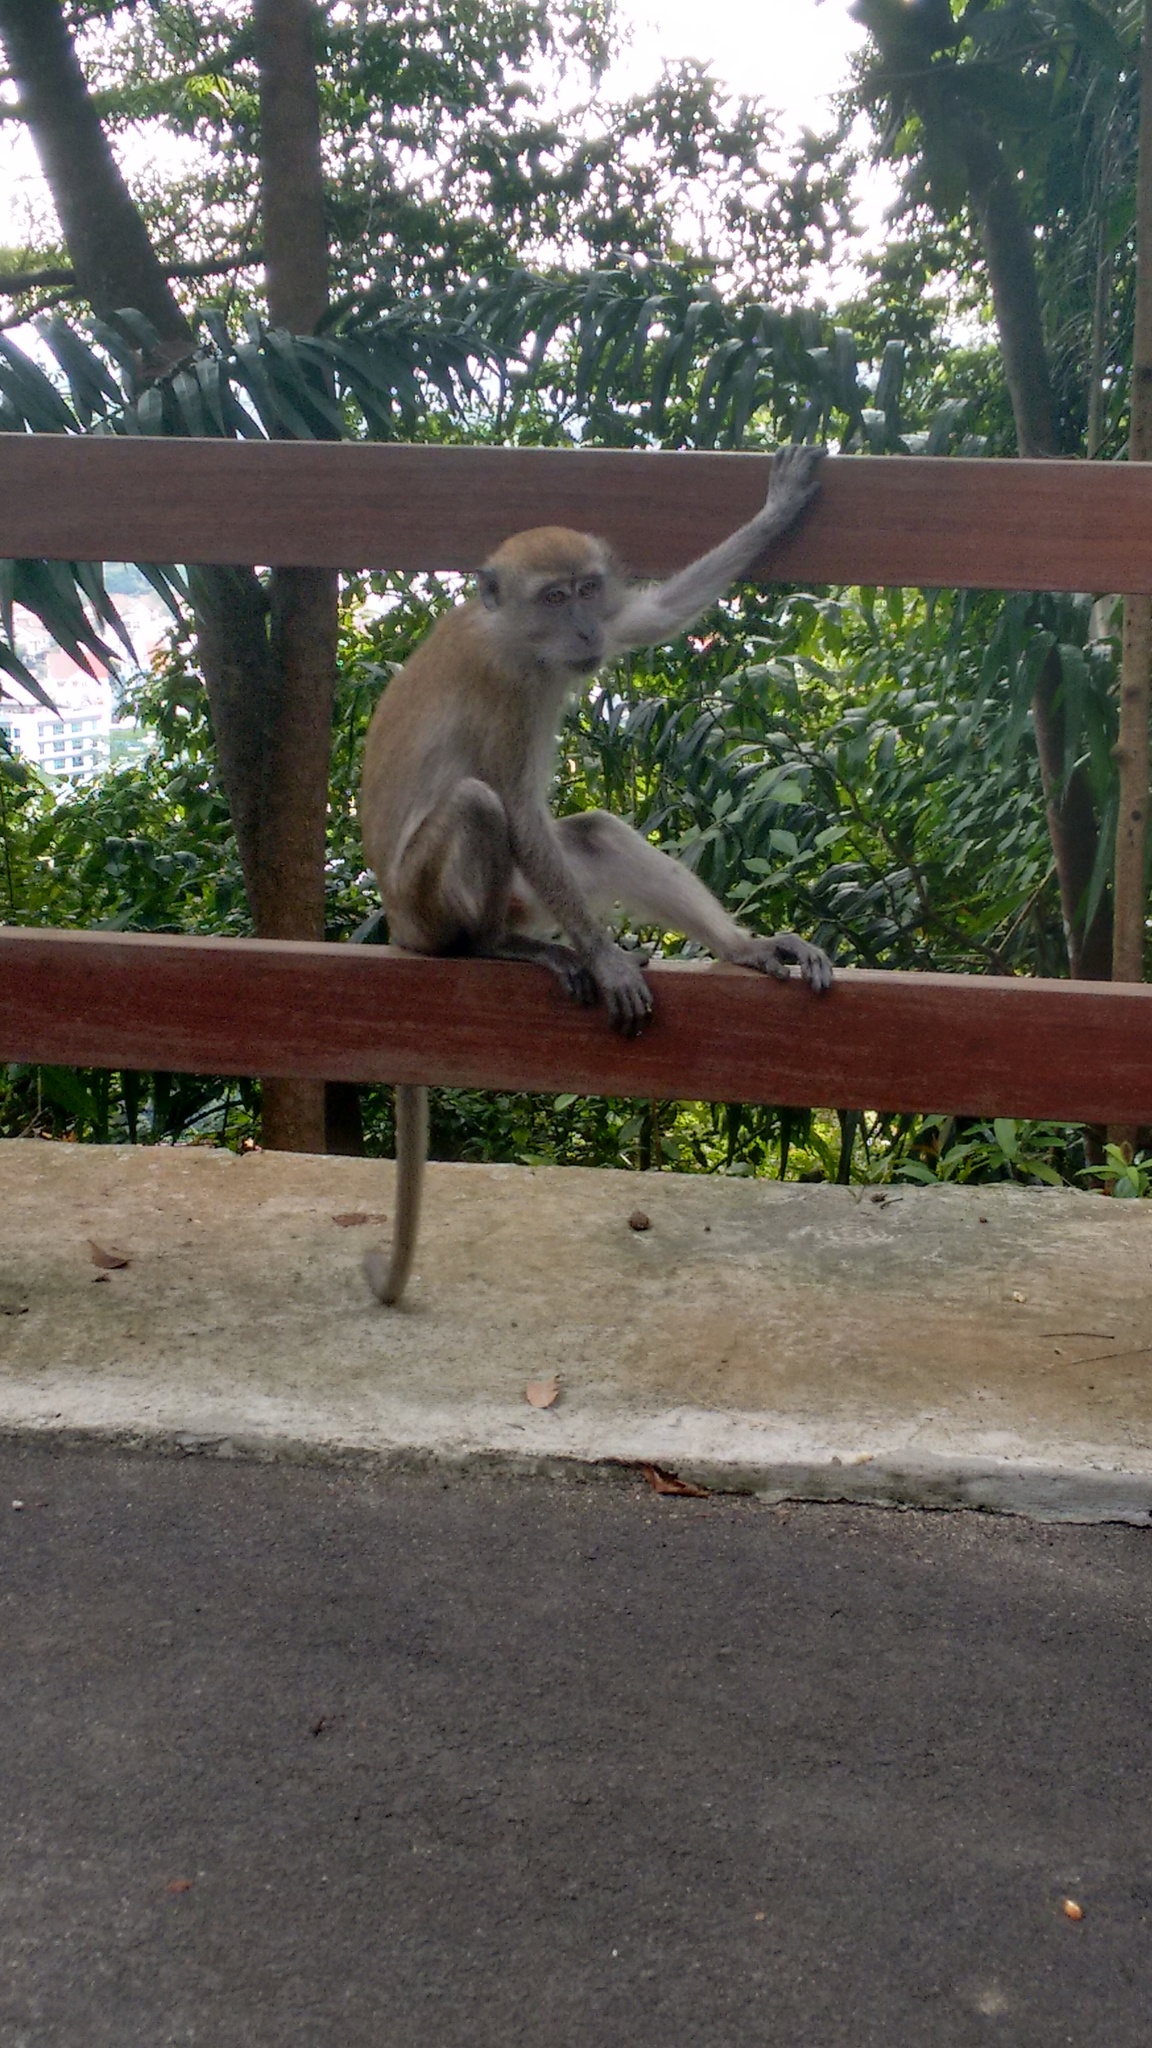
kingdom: Animalia
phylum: Chordata
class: Mammalia
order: Primates
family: Cercopithecidae
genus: Macaca
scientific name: Macaca fascicularis
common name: Crab-eating macaque
